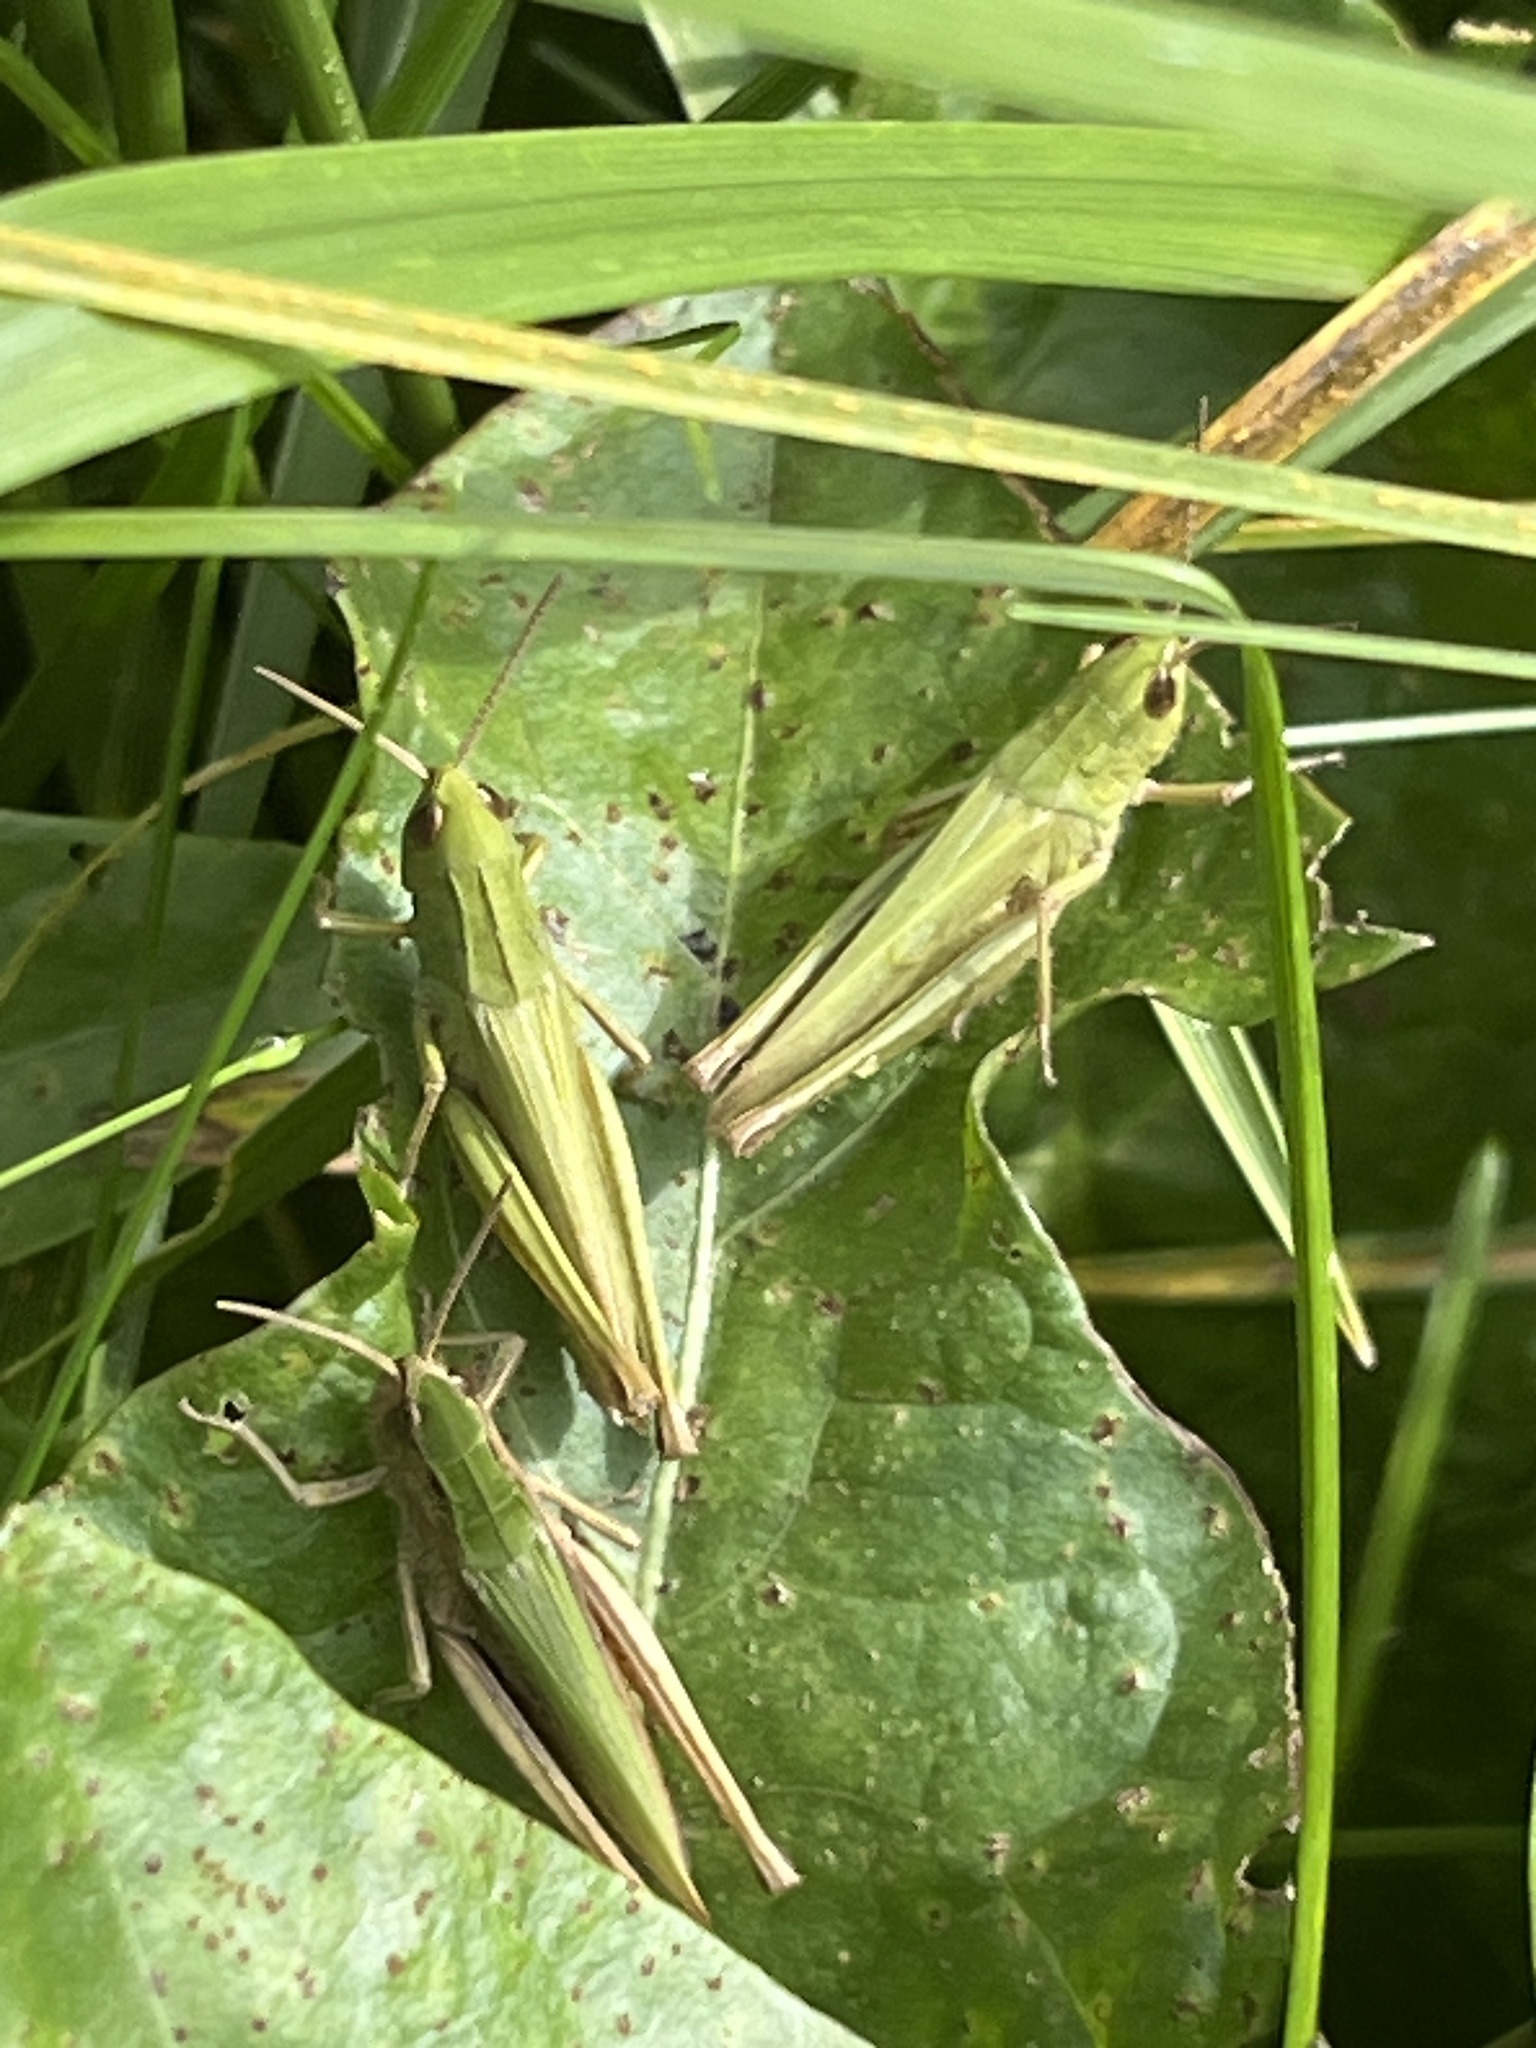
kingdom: Animalia
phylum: Arthropoda
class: Insecta
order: Orthoptera
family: Acrididae
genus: Chorthippus
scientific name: Chorthippus dorsatus
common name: Steppe grasshopper
